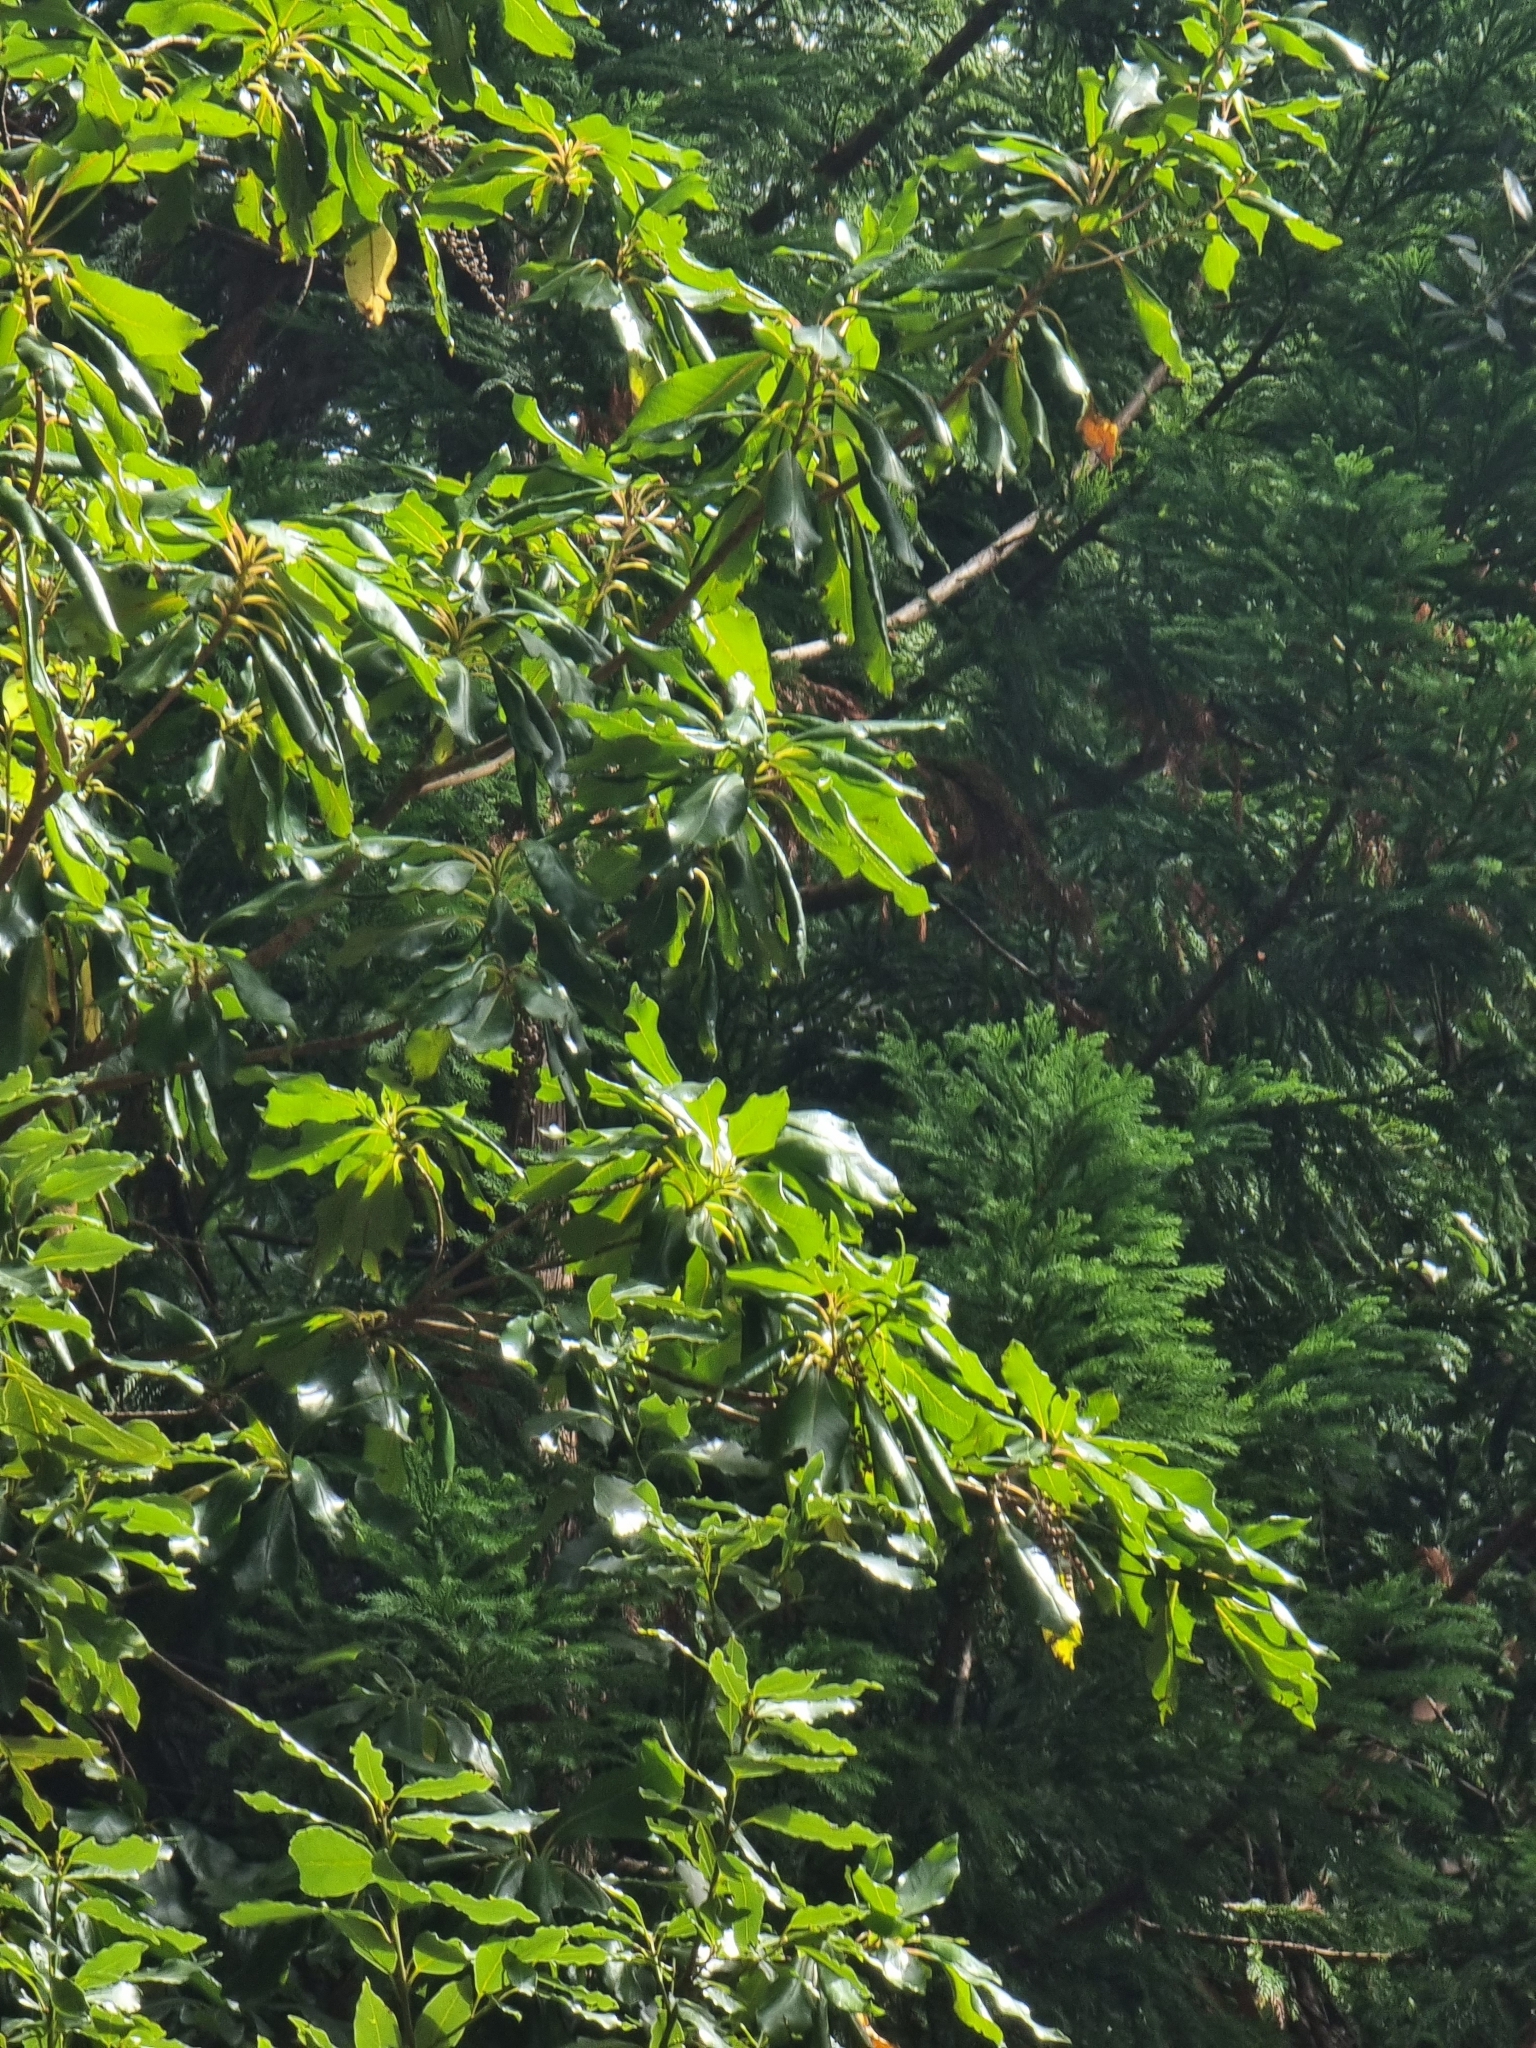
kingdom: Plantae
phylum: Tracheophyta
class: Magnoliopsida
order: Ericales
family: Clethraceae
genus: Clethra
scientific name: Clethra arborea
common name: Lily-of-the-valley-tree
